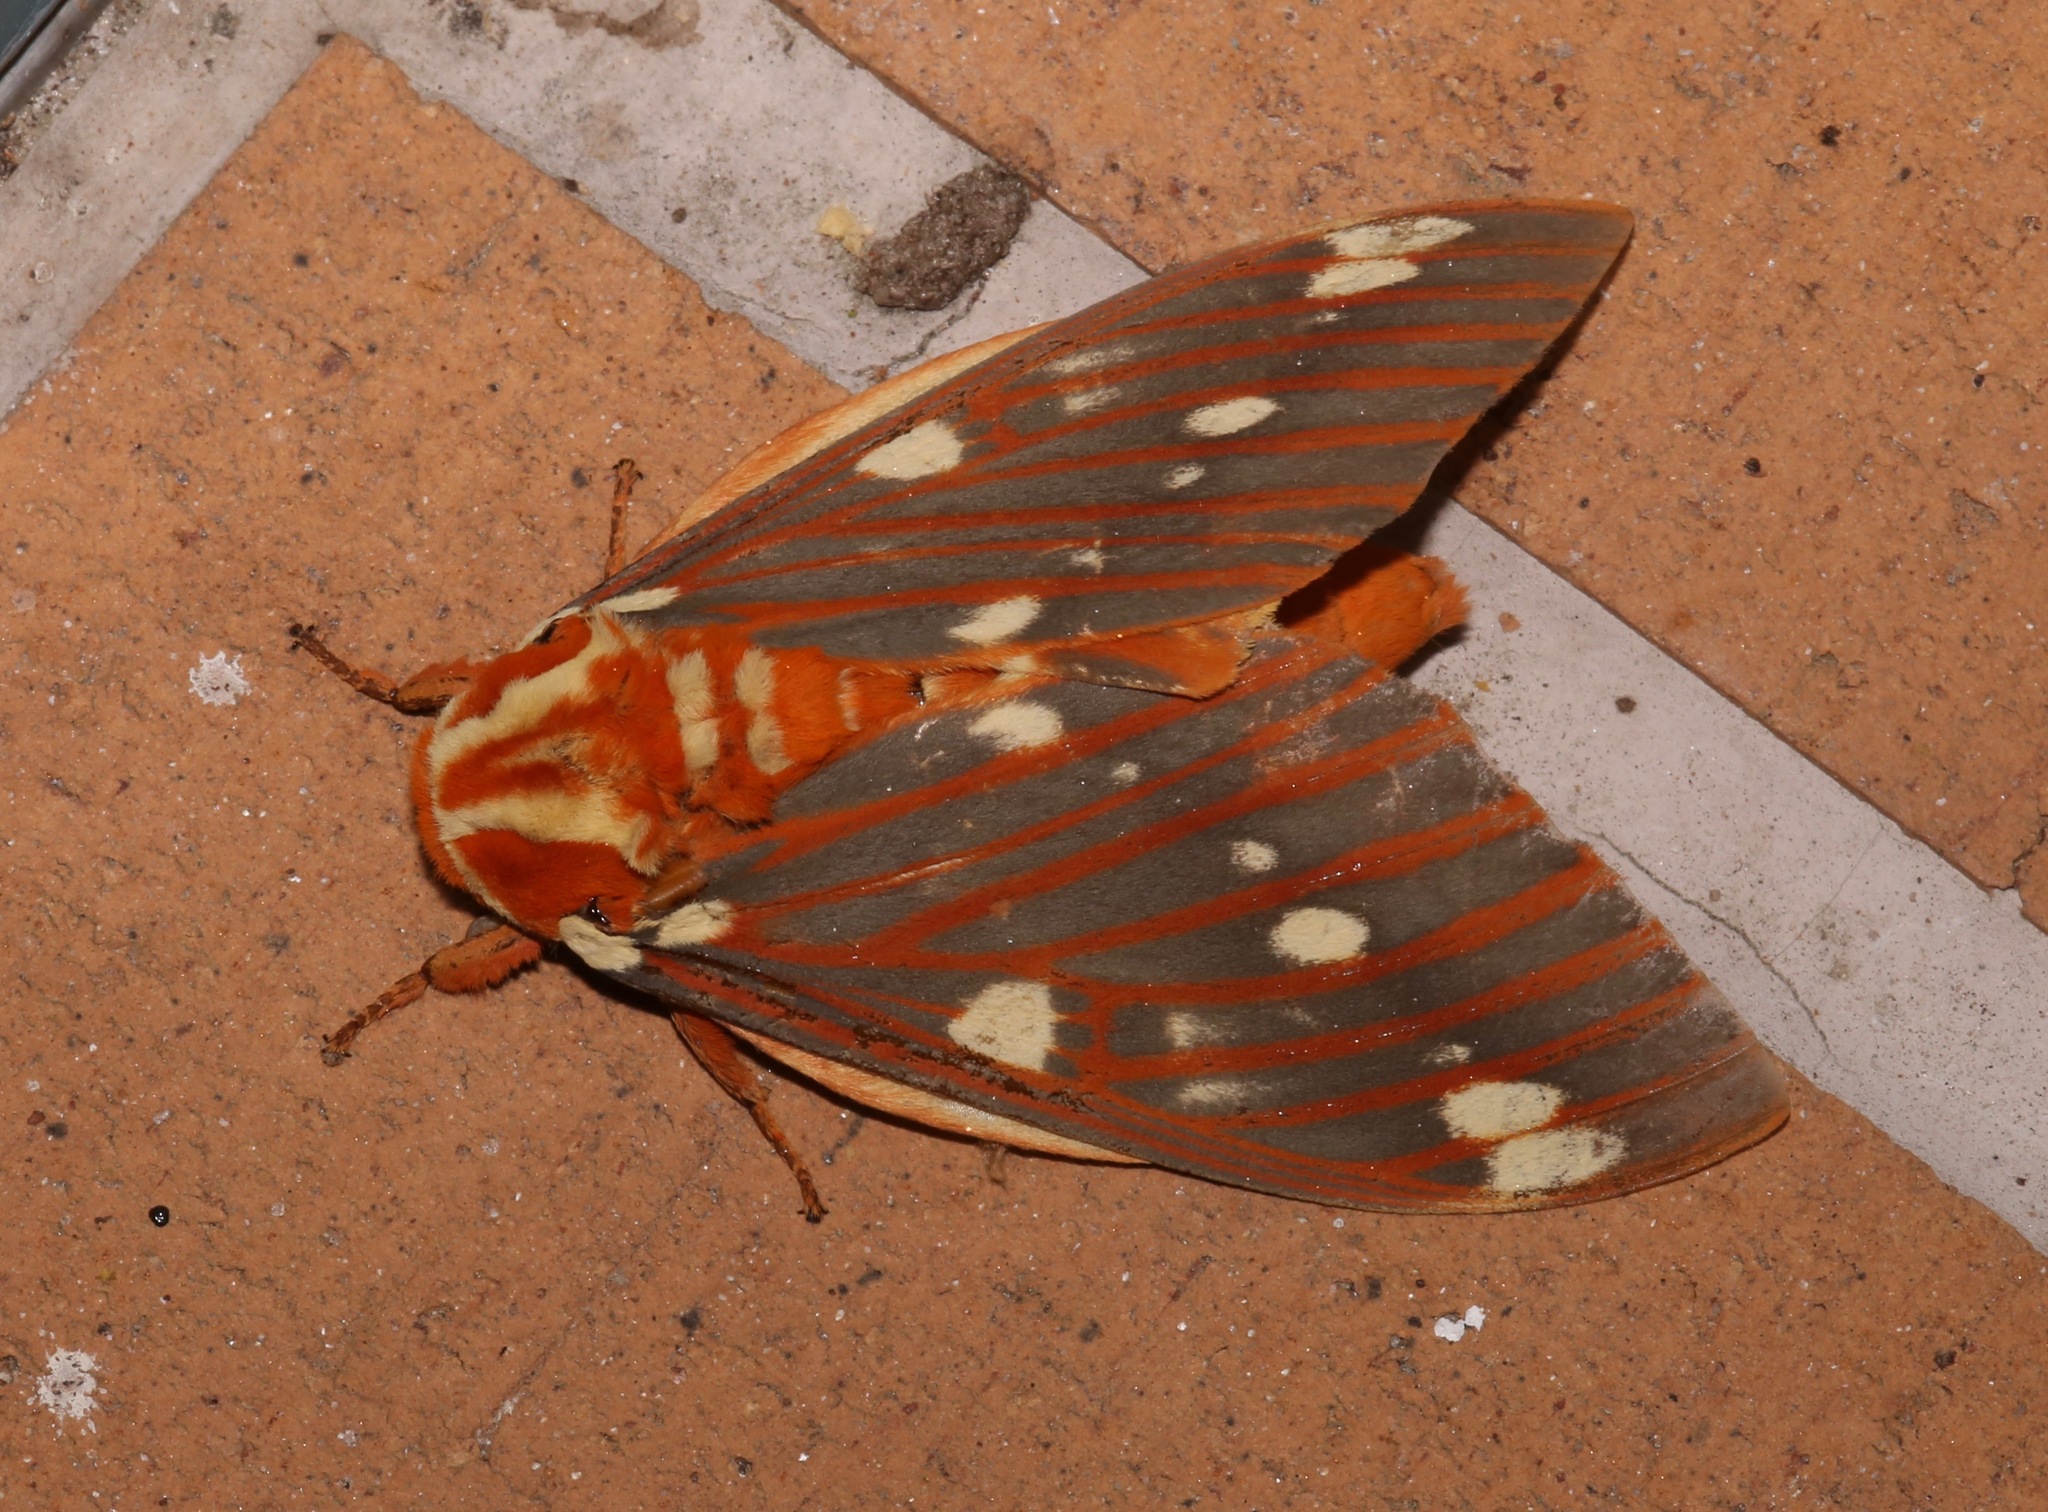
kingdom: Animalia
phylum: Arthropoda
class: Insecta
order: Lepidoptera
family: Saturniidae
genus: Citheronia
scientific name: Citheronia regalis
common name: Hickory horned devil
